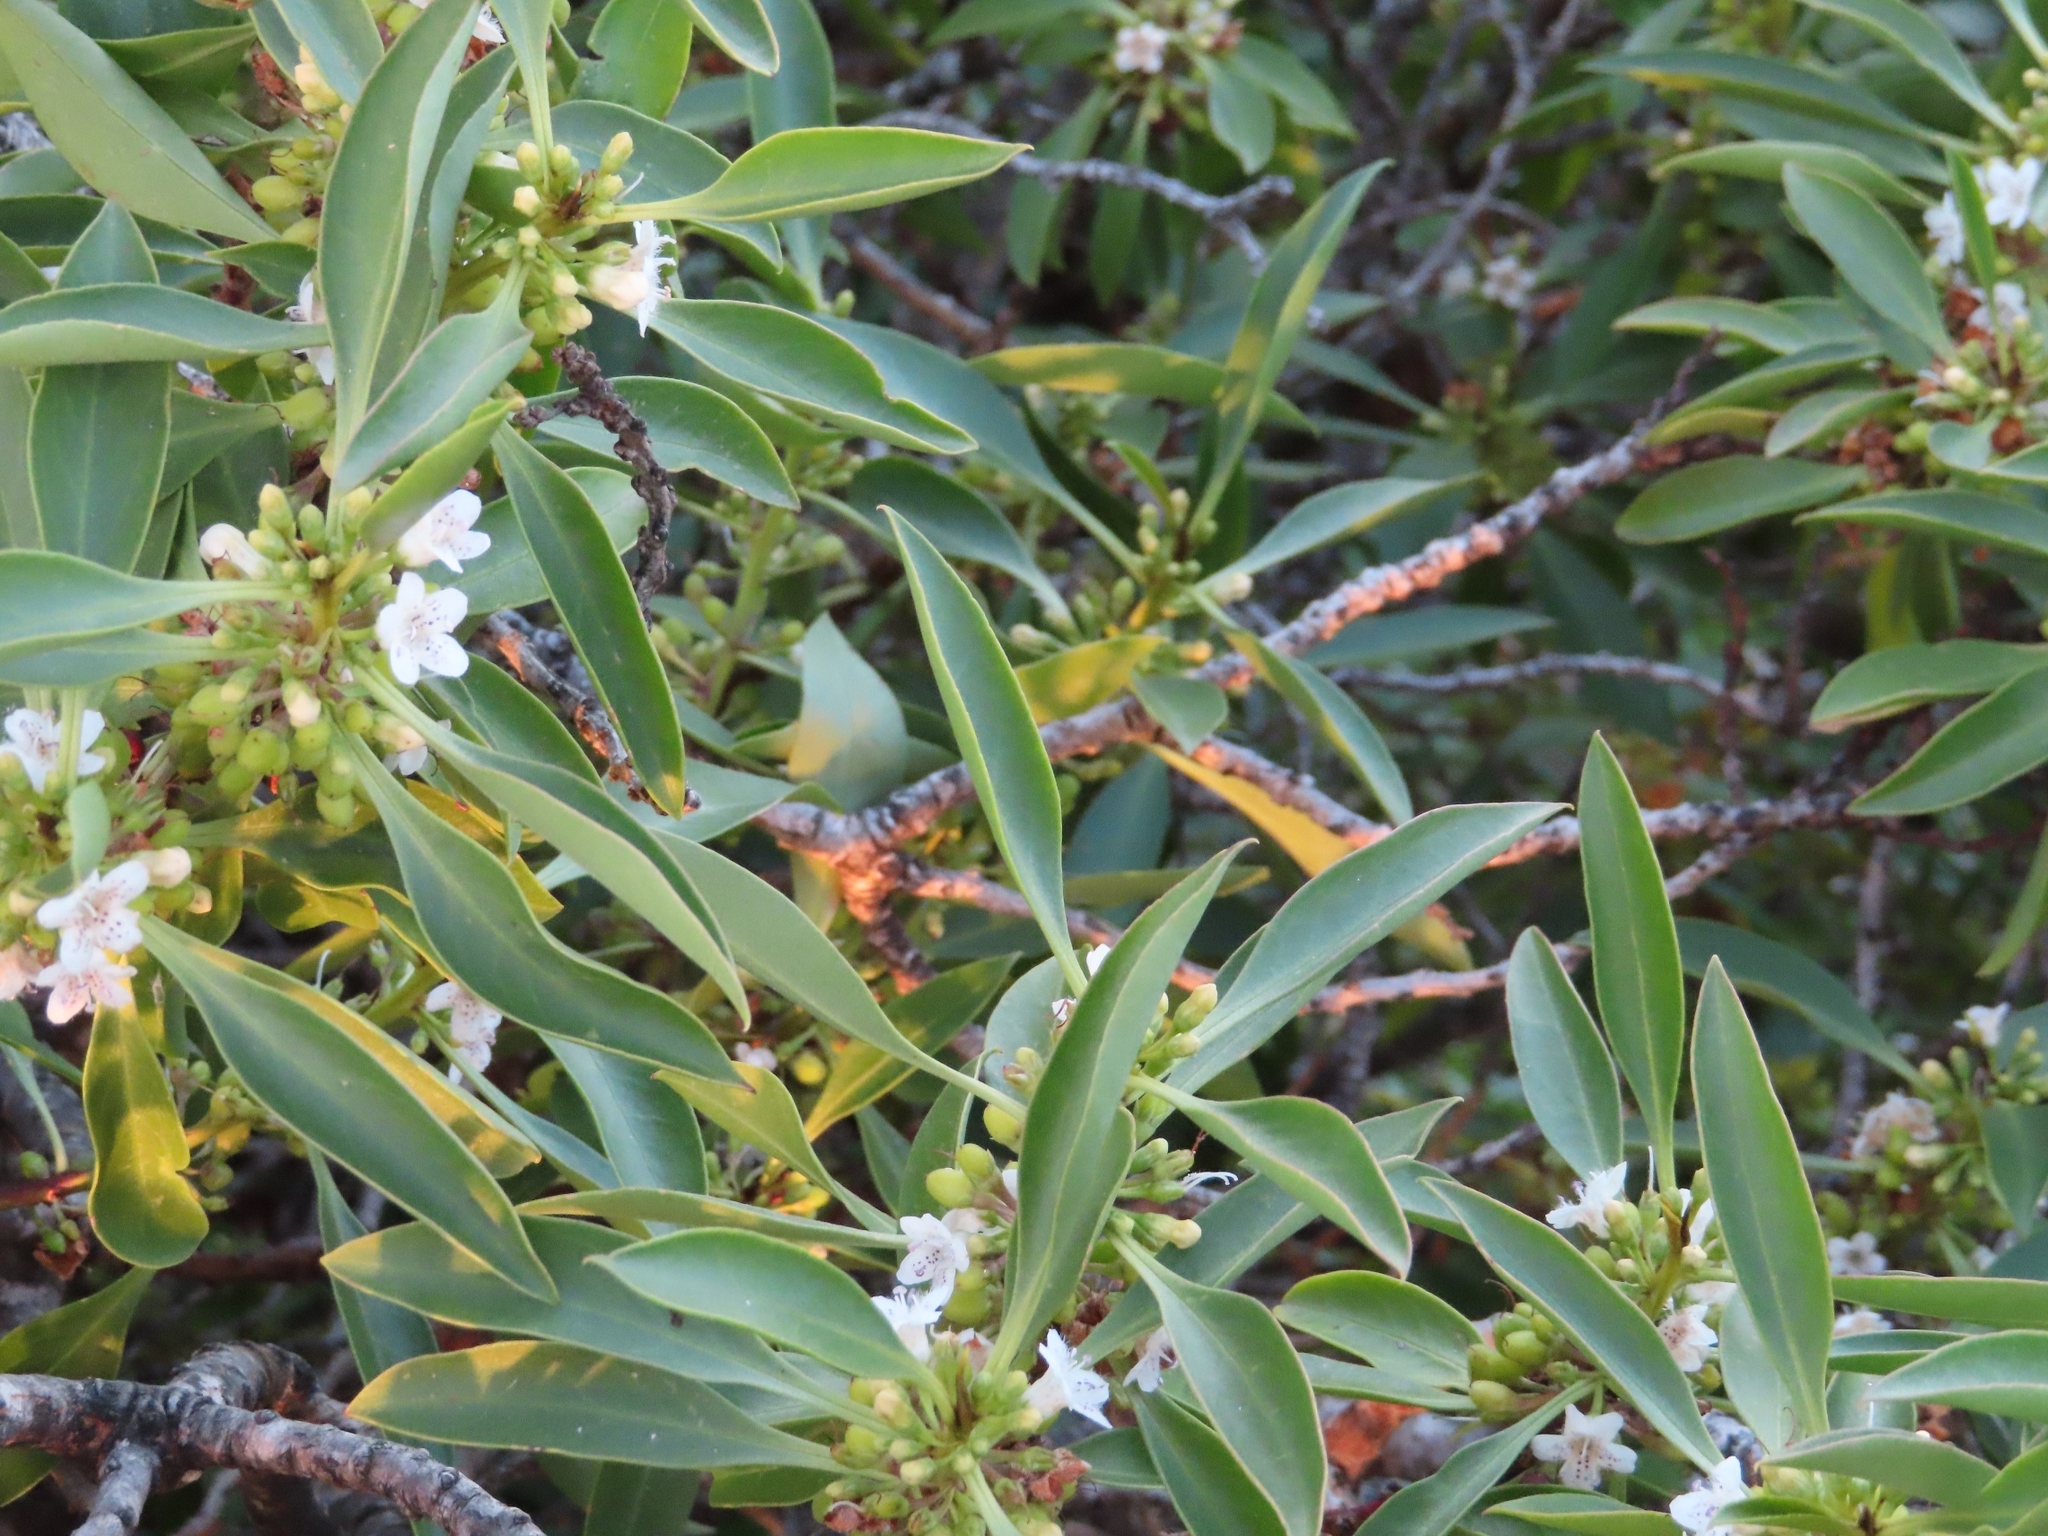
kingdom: Plantae
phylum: Tracheophyta
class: Magnoliopsida
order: Lamiales
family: Scrophulariaceae
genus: Myoporum
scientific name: Myoporum insulare
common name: Common boobialla
